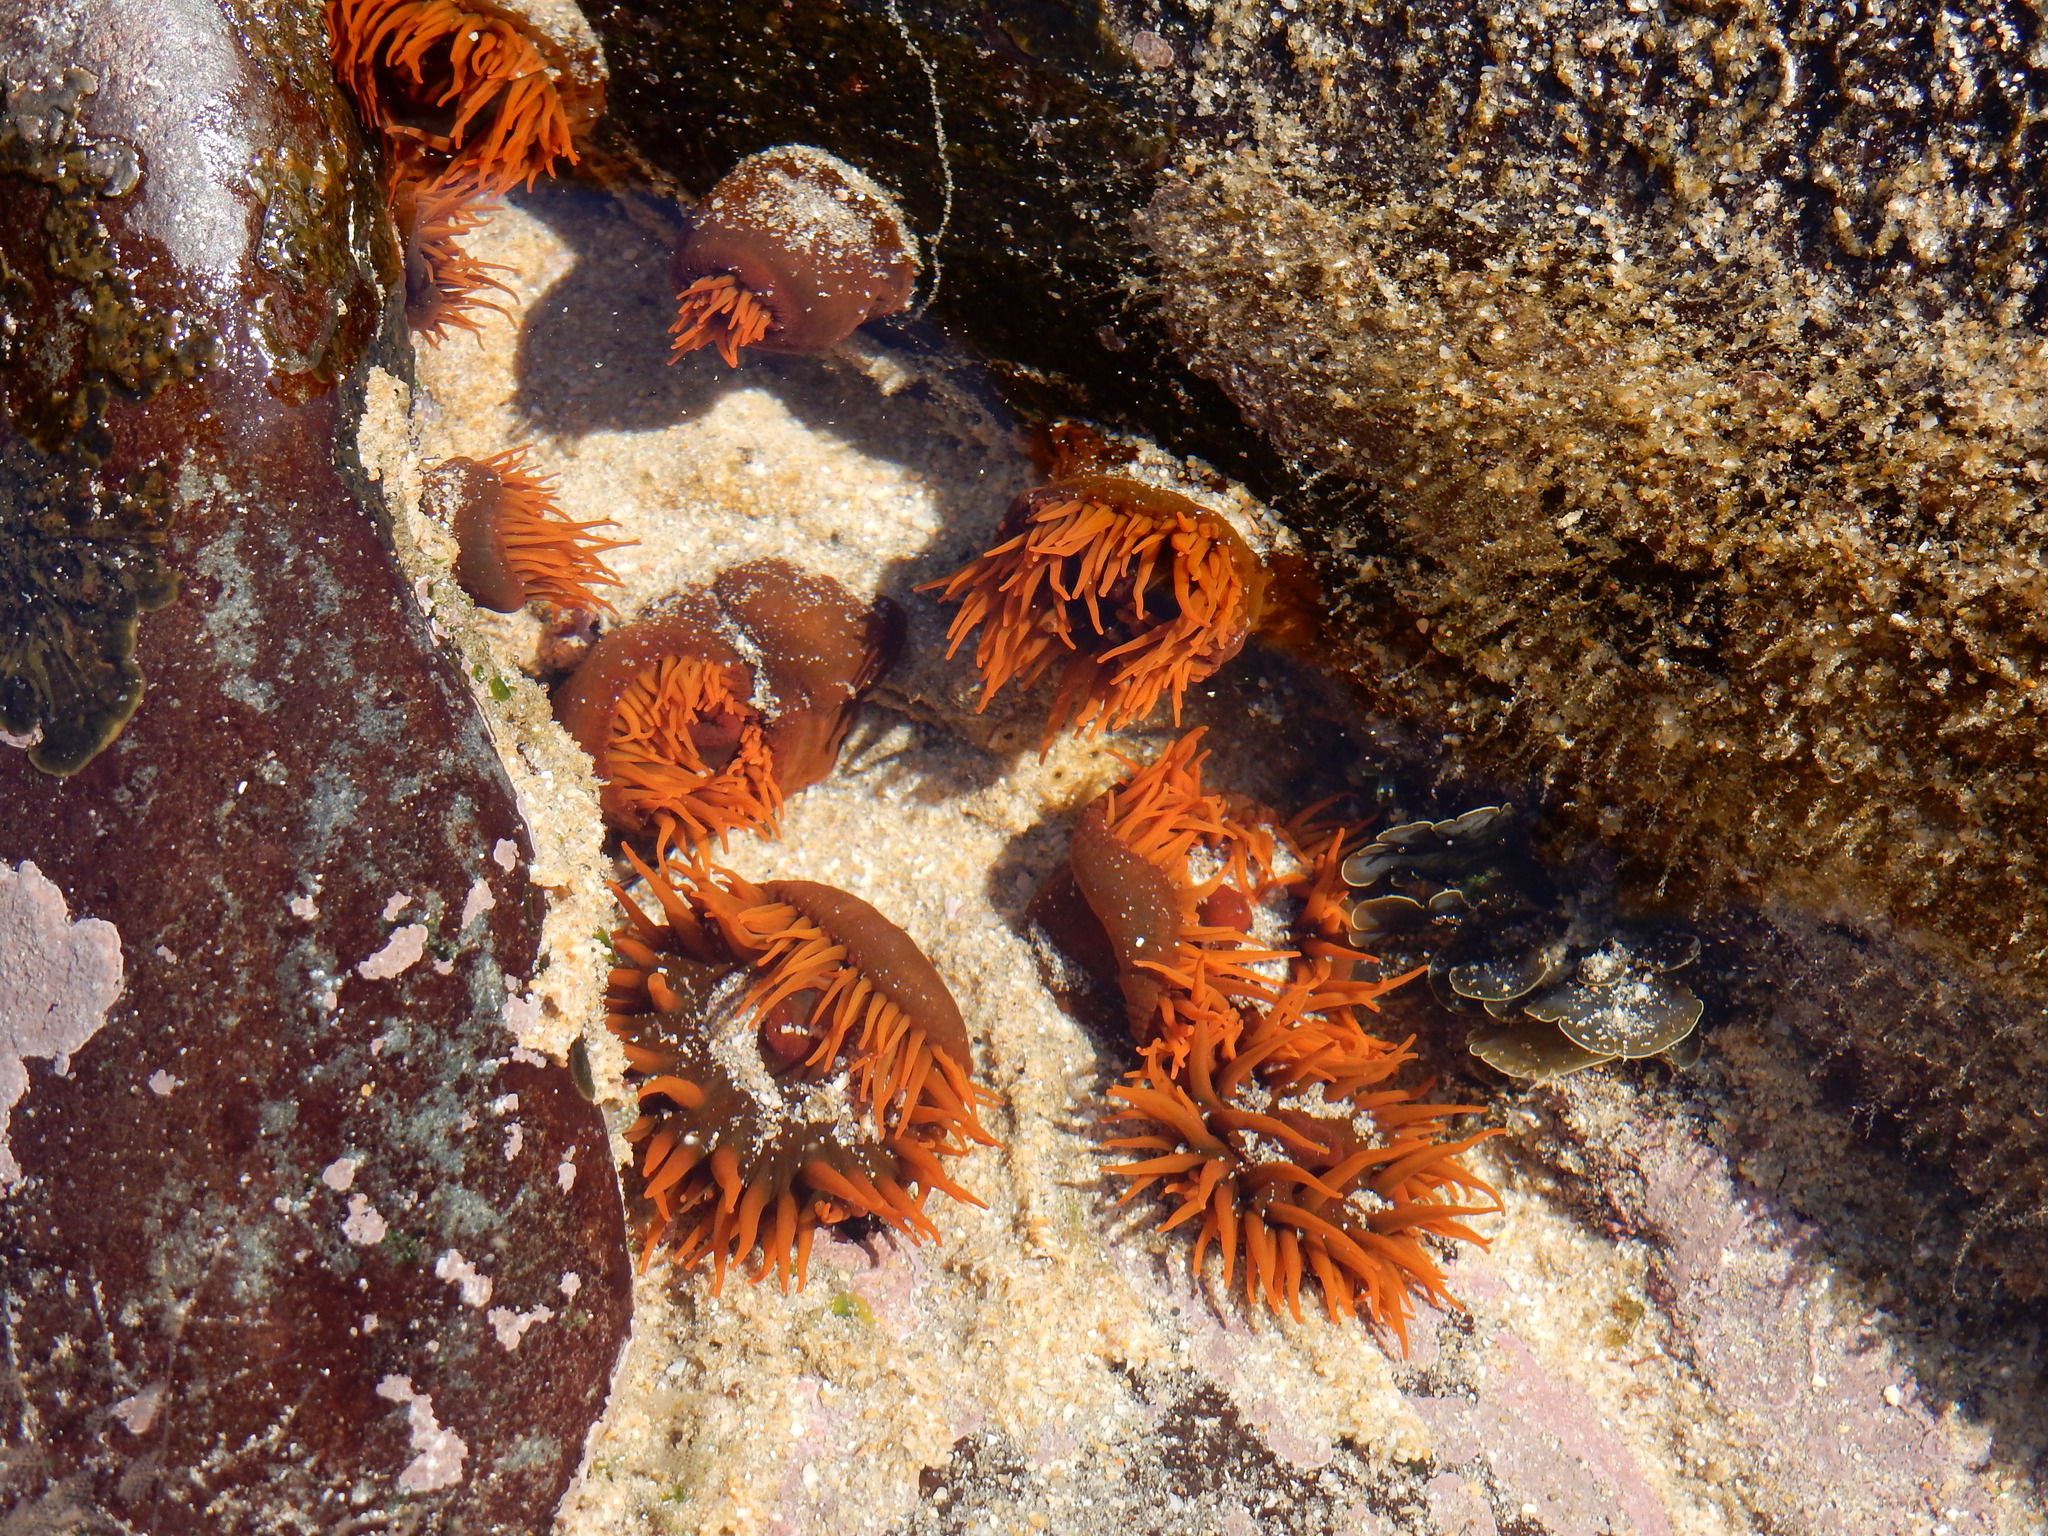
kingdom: Animalia
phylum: Cnidaria
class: Anthozoa
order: Actiniaria
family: Actiniidae
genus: Actinia
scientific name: Actinia ebhayiensis
